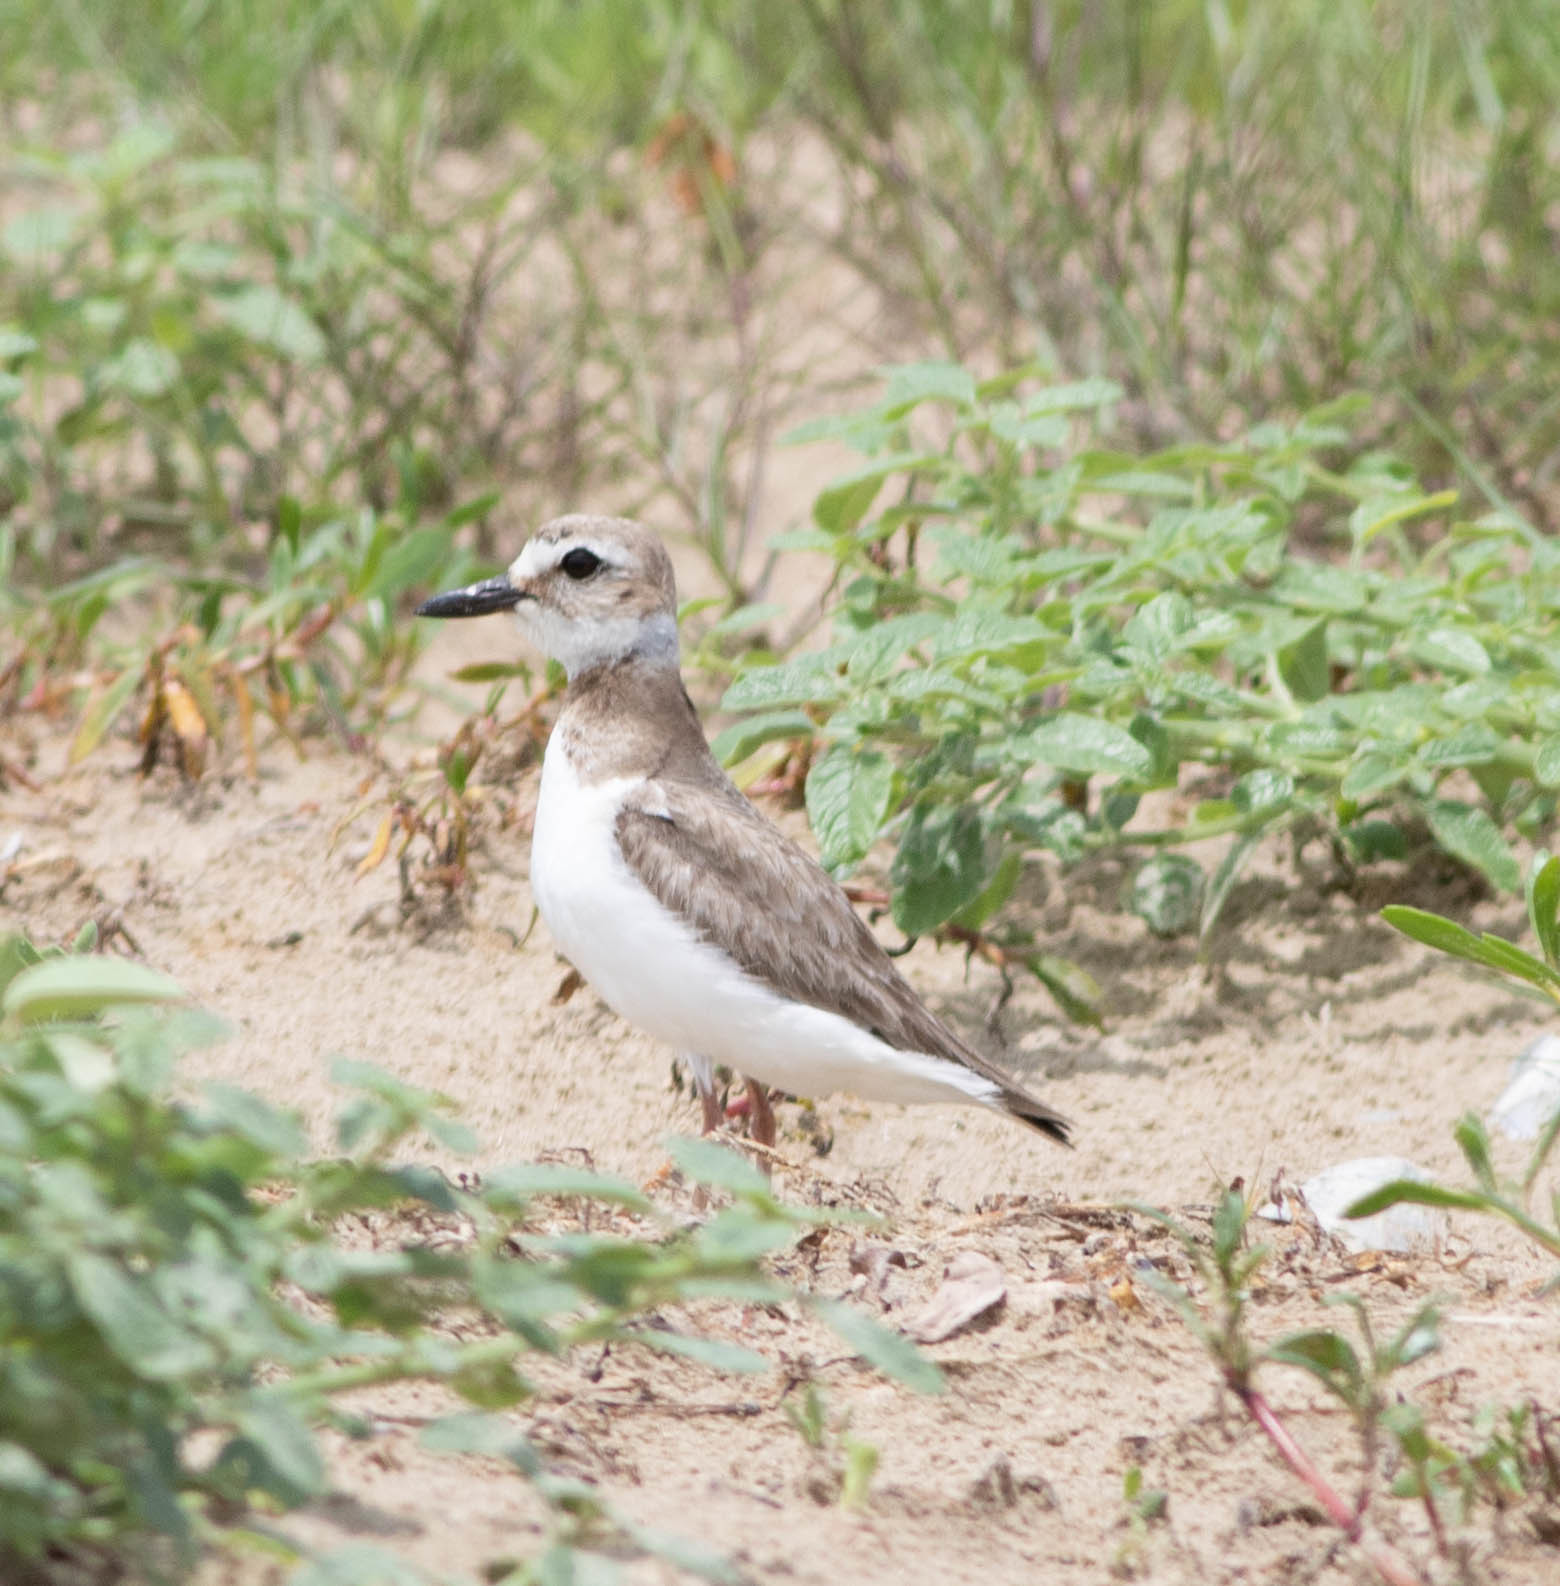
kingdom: Animalia
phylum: Chordata
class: Aves
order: Charadriiformes
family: Charadriidae
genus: Anarhynchus
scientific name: Anarhynchus
